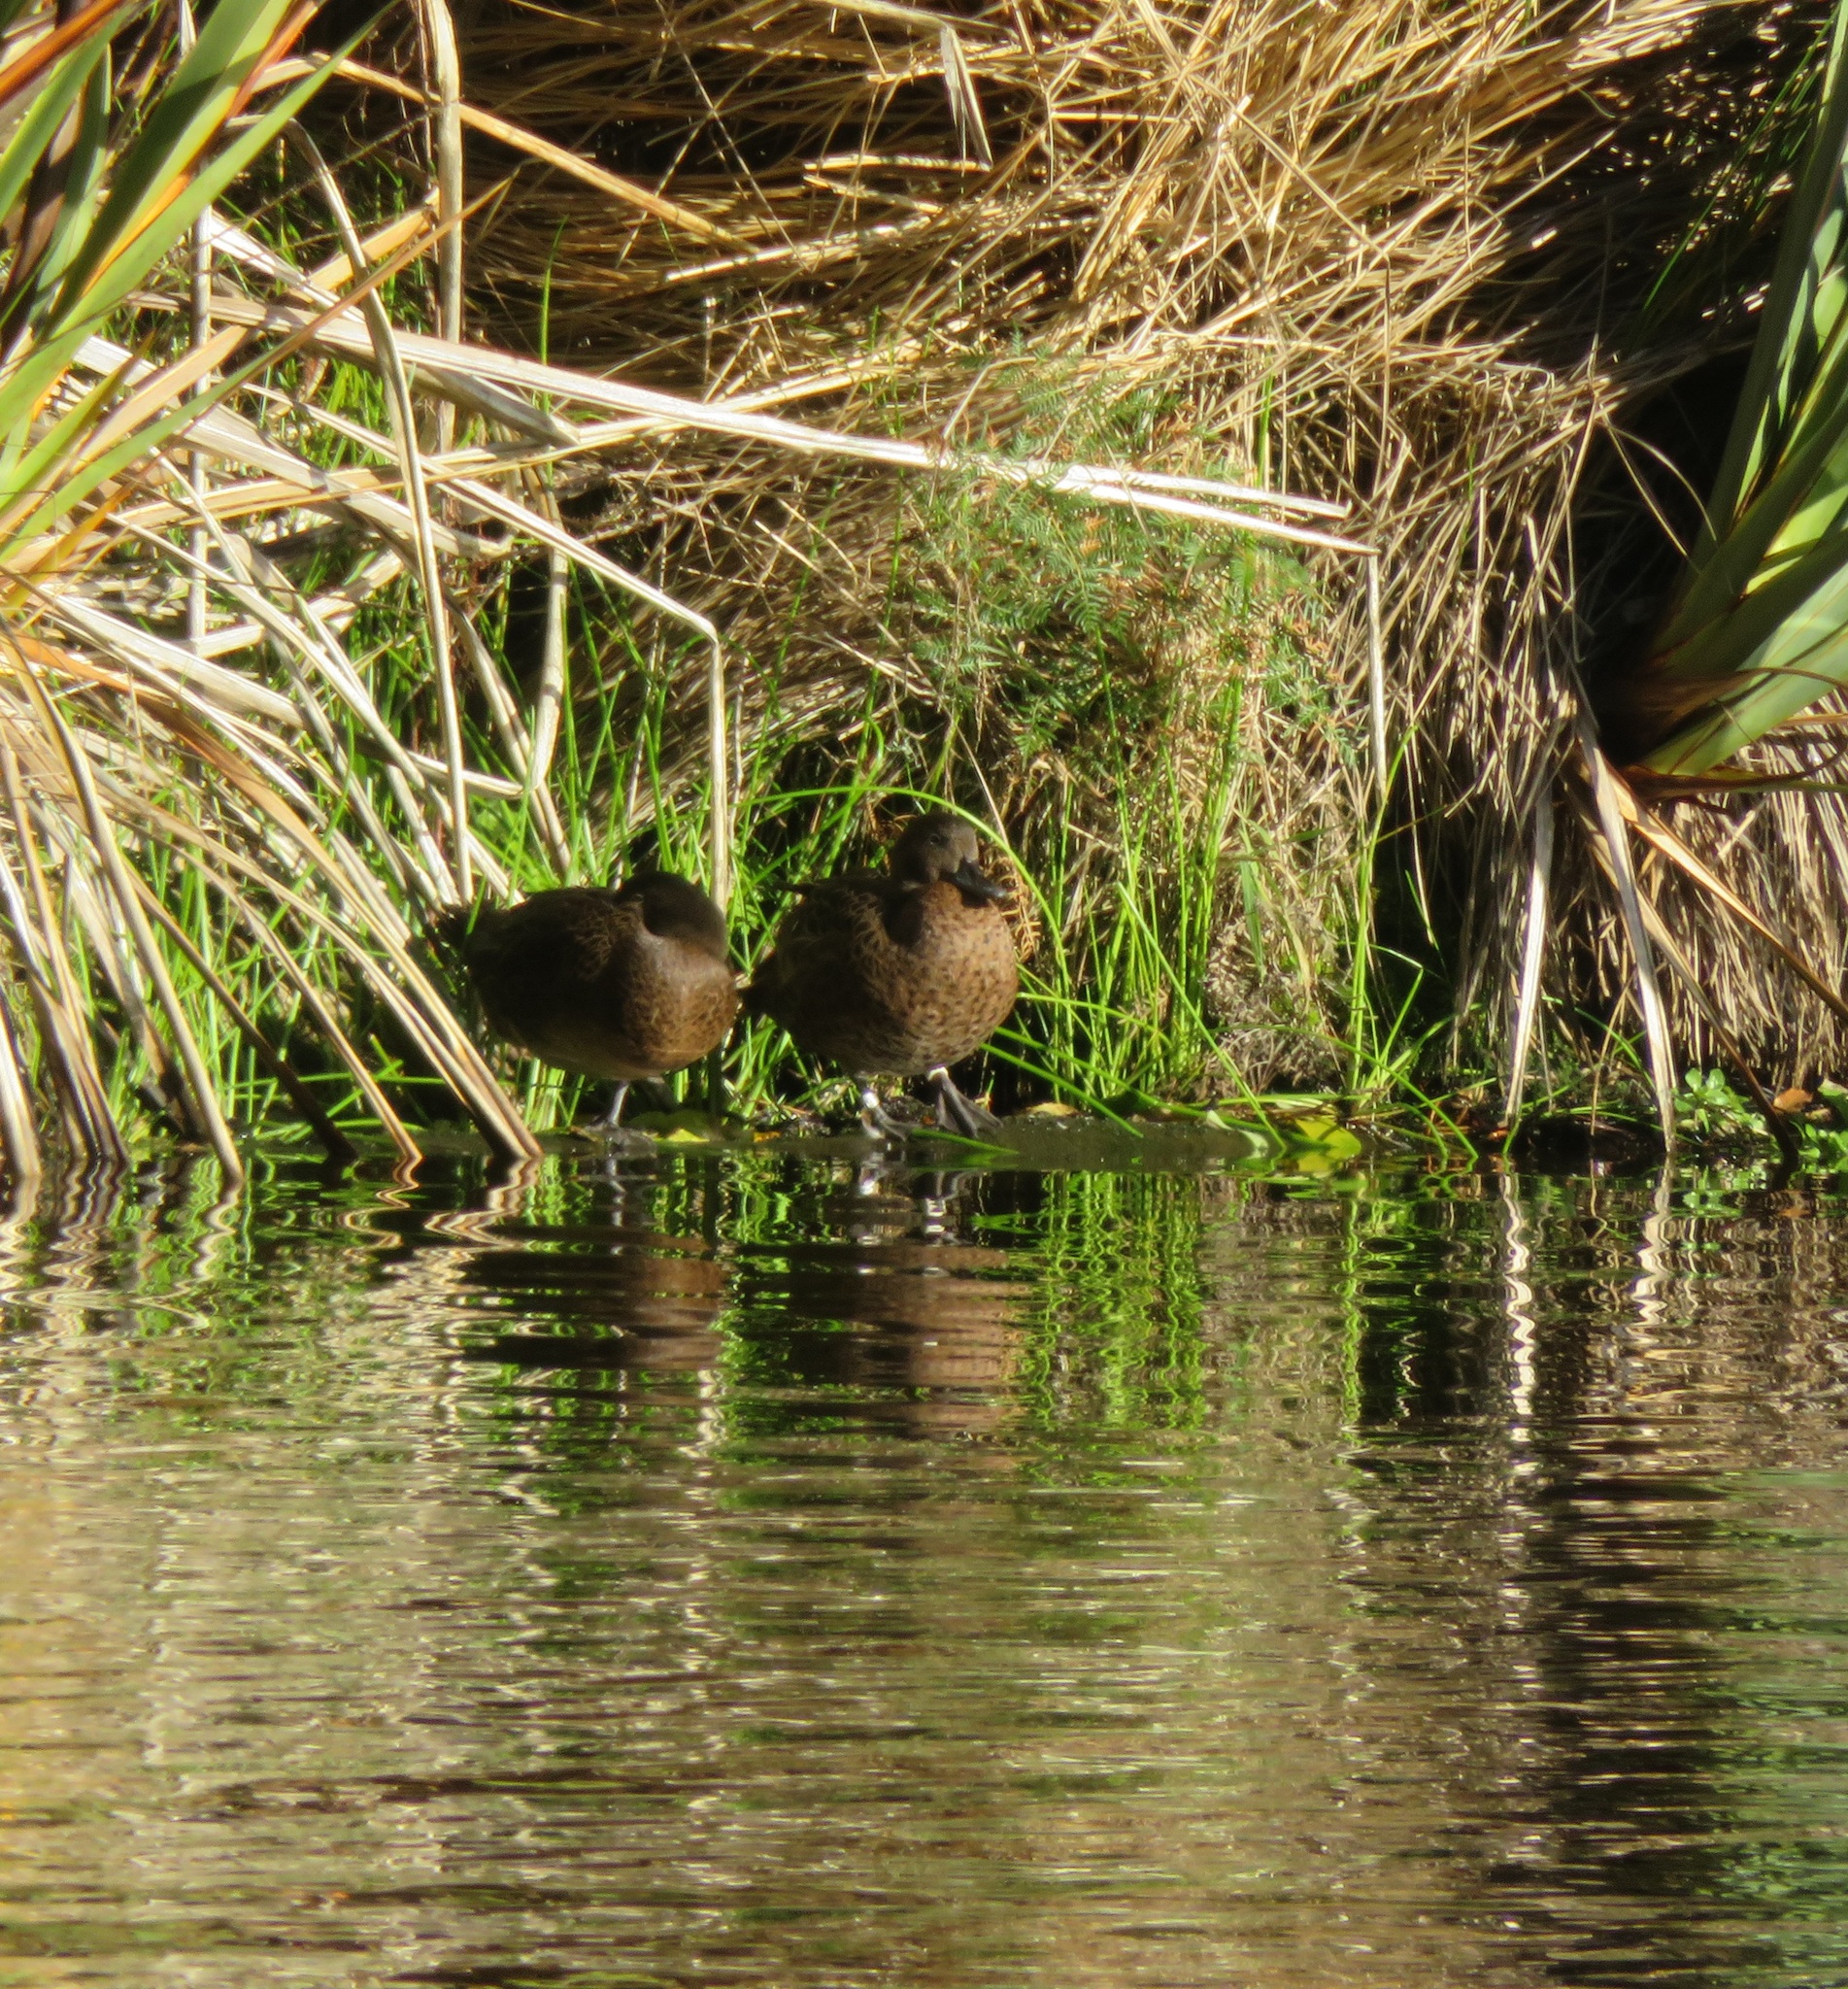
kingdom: Animalia
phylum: Chordata
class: Aves
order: Anseriformes
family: Anatidae
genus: Anas
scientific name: Anas chlorotis
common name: Brown teal
